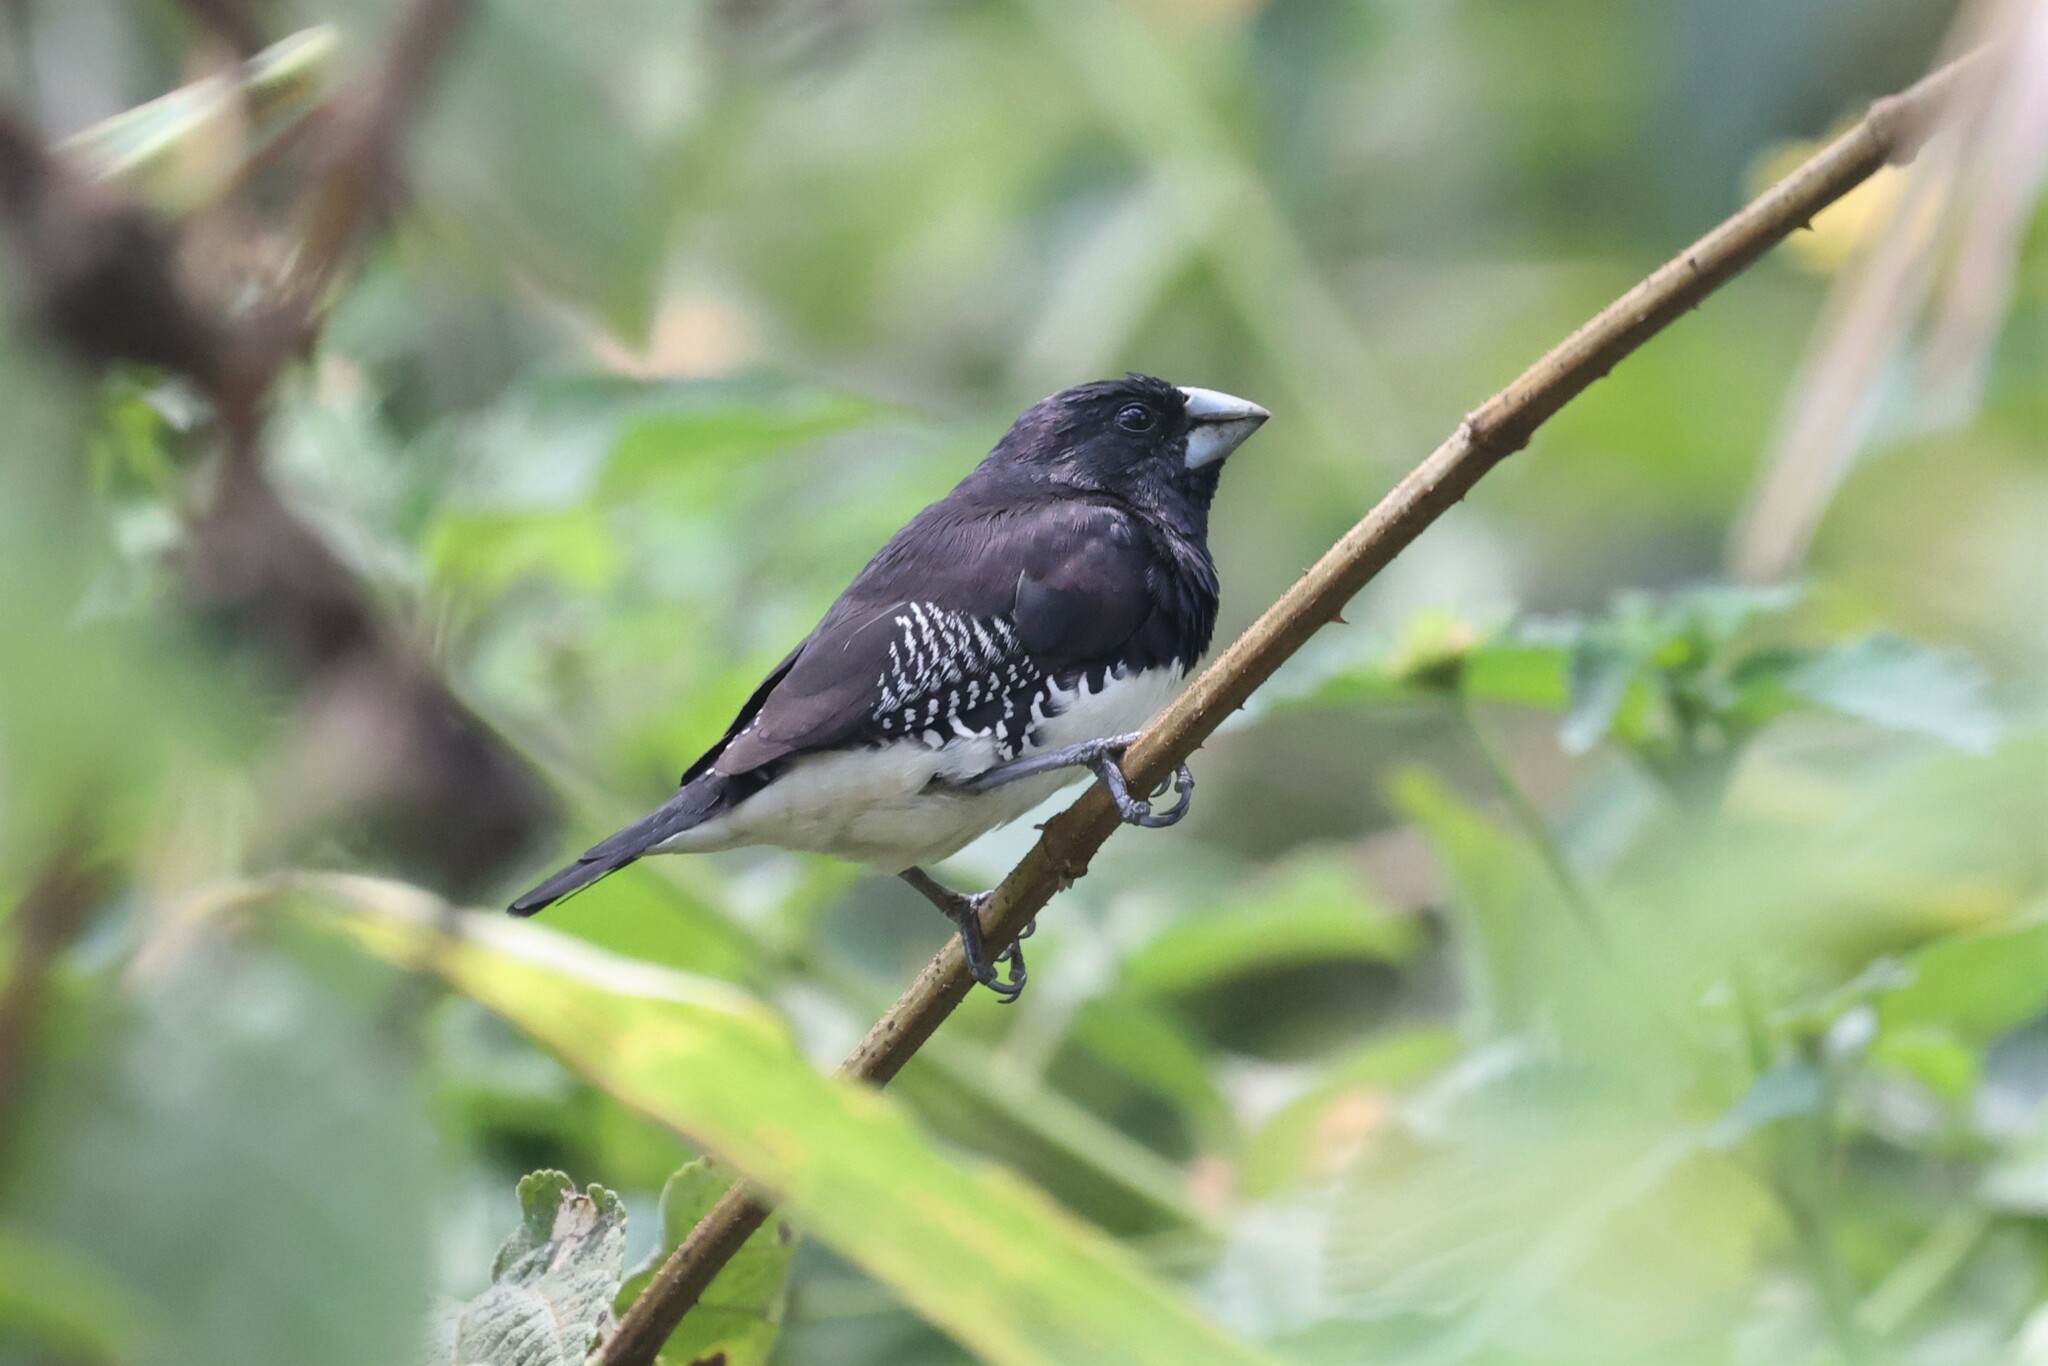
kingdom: Animalia
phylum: Chordata
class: Aves
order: Passeriformes
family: Estrildidae
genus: Lonchura
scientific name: Lonchura bicolor
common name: Black-and-white mannikin
